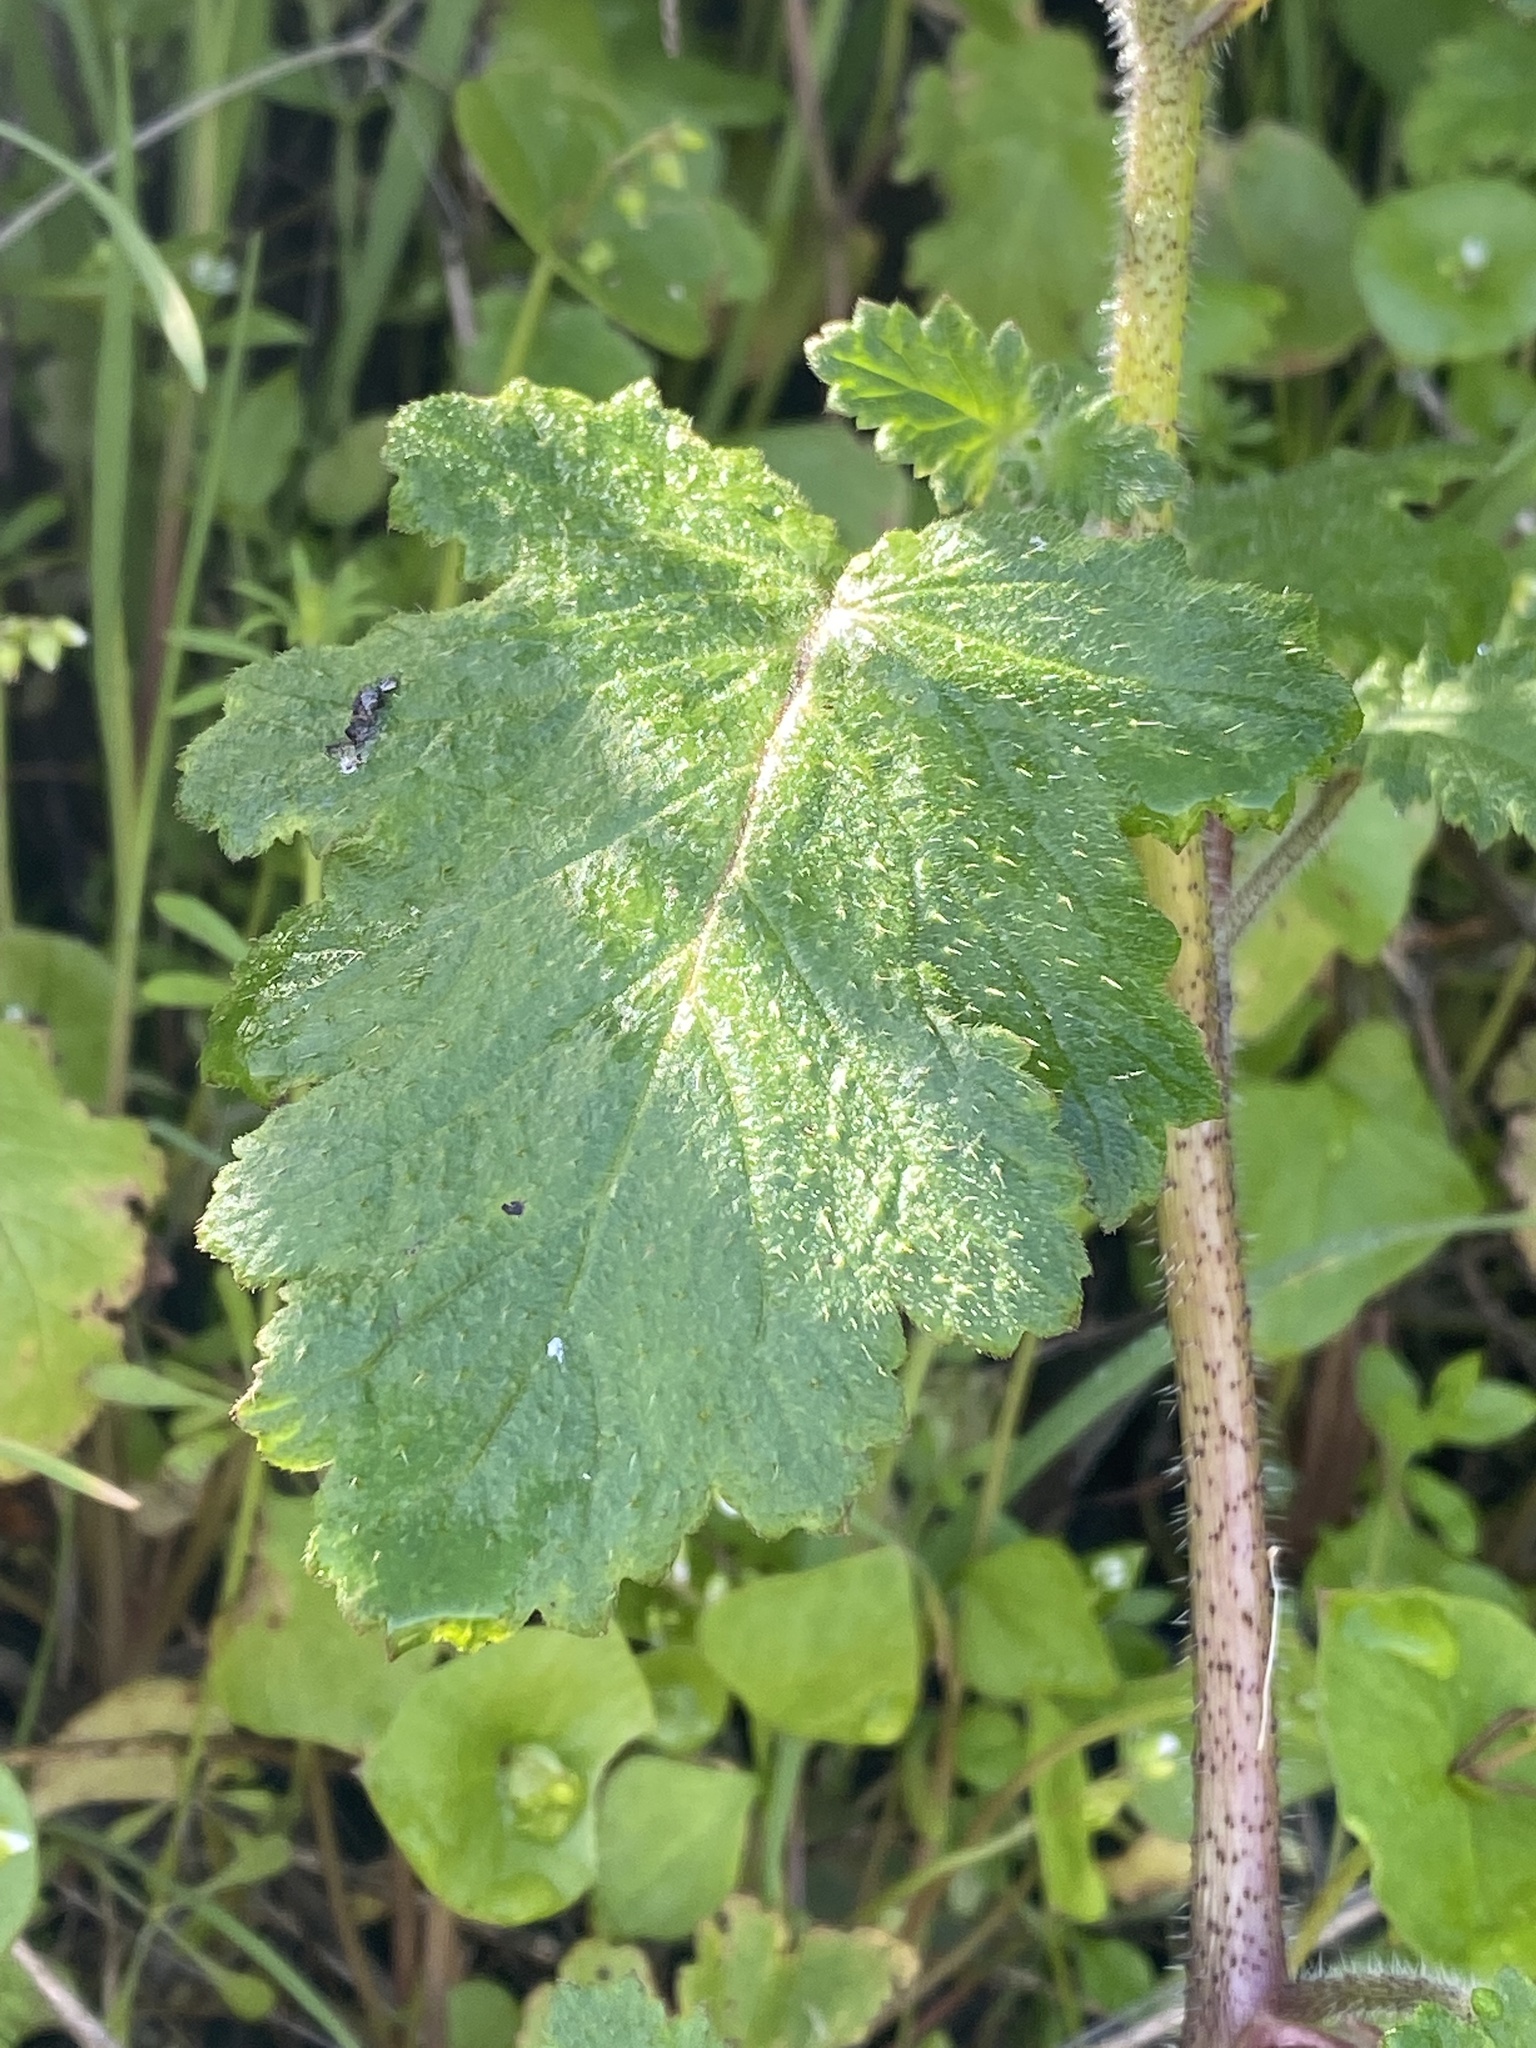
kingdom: Plantae
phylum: Tracheophyta
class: Magnoliopsida
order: Boraginales
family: Hydrophyllaceae
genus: Phacelia
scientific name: Phacelia malvifolia
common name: Mallow-leaf phacelia
